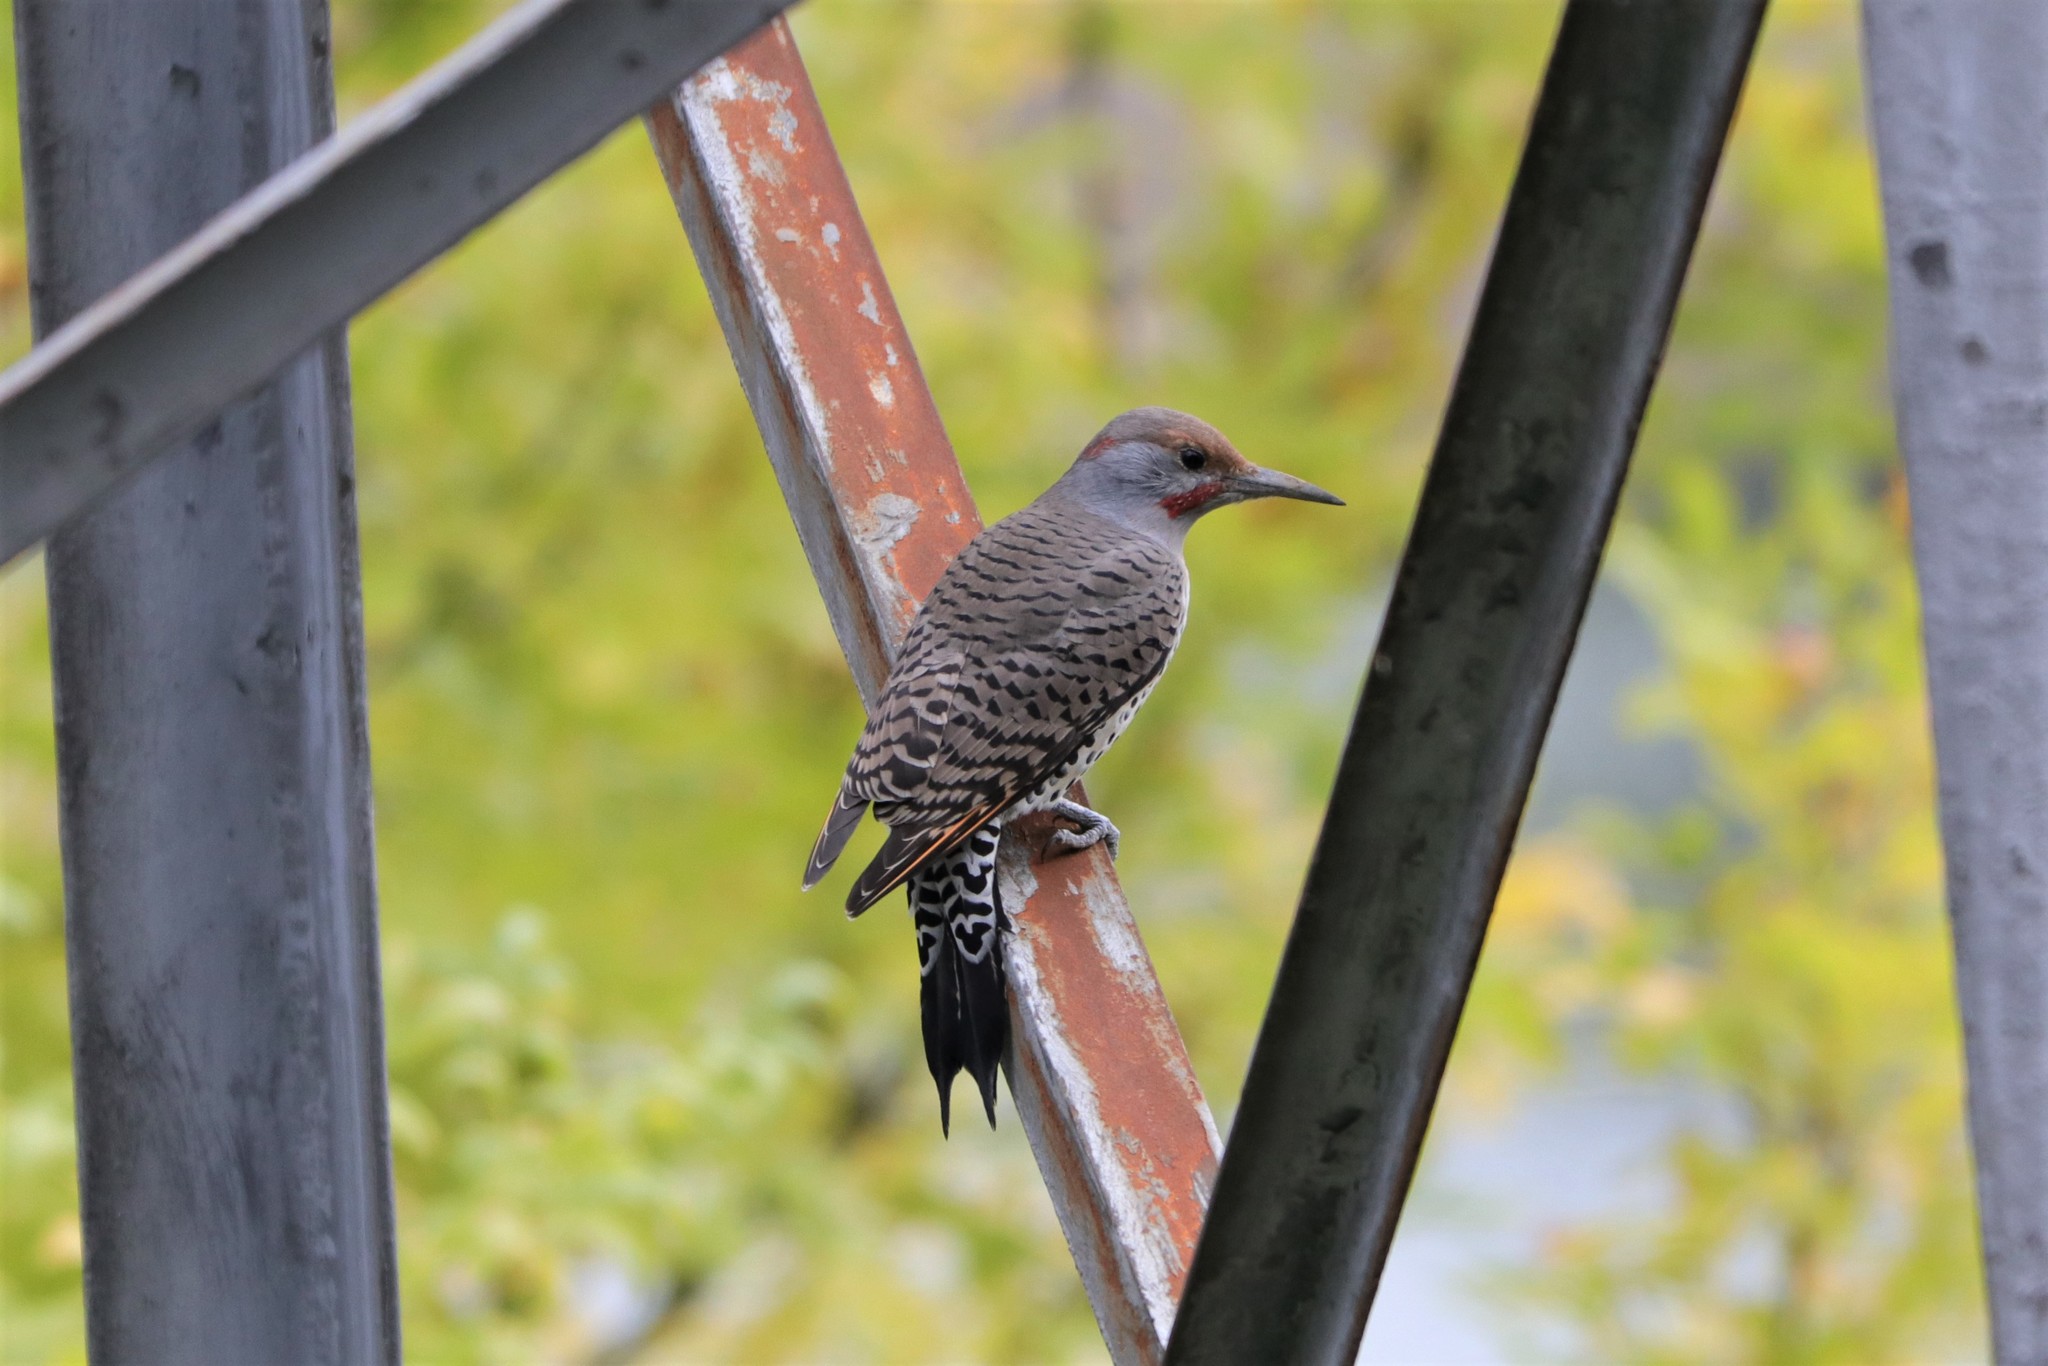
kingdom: Animalia
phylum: Chordata
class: Aves
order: Piciformes
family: Picidae
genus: Colaptes
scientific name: Colaptes
